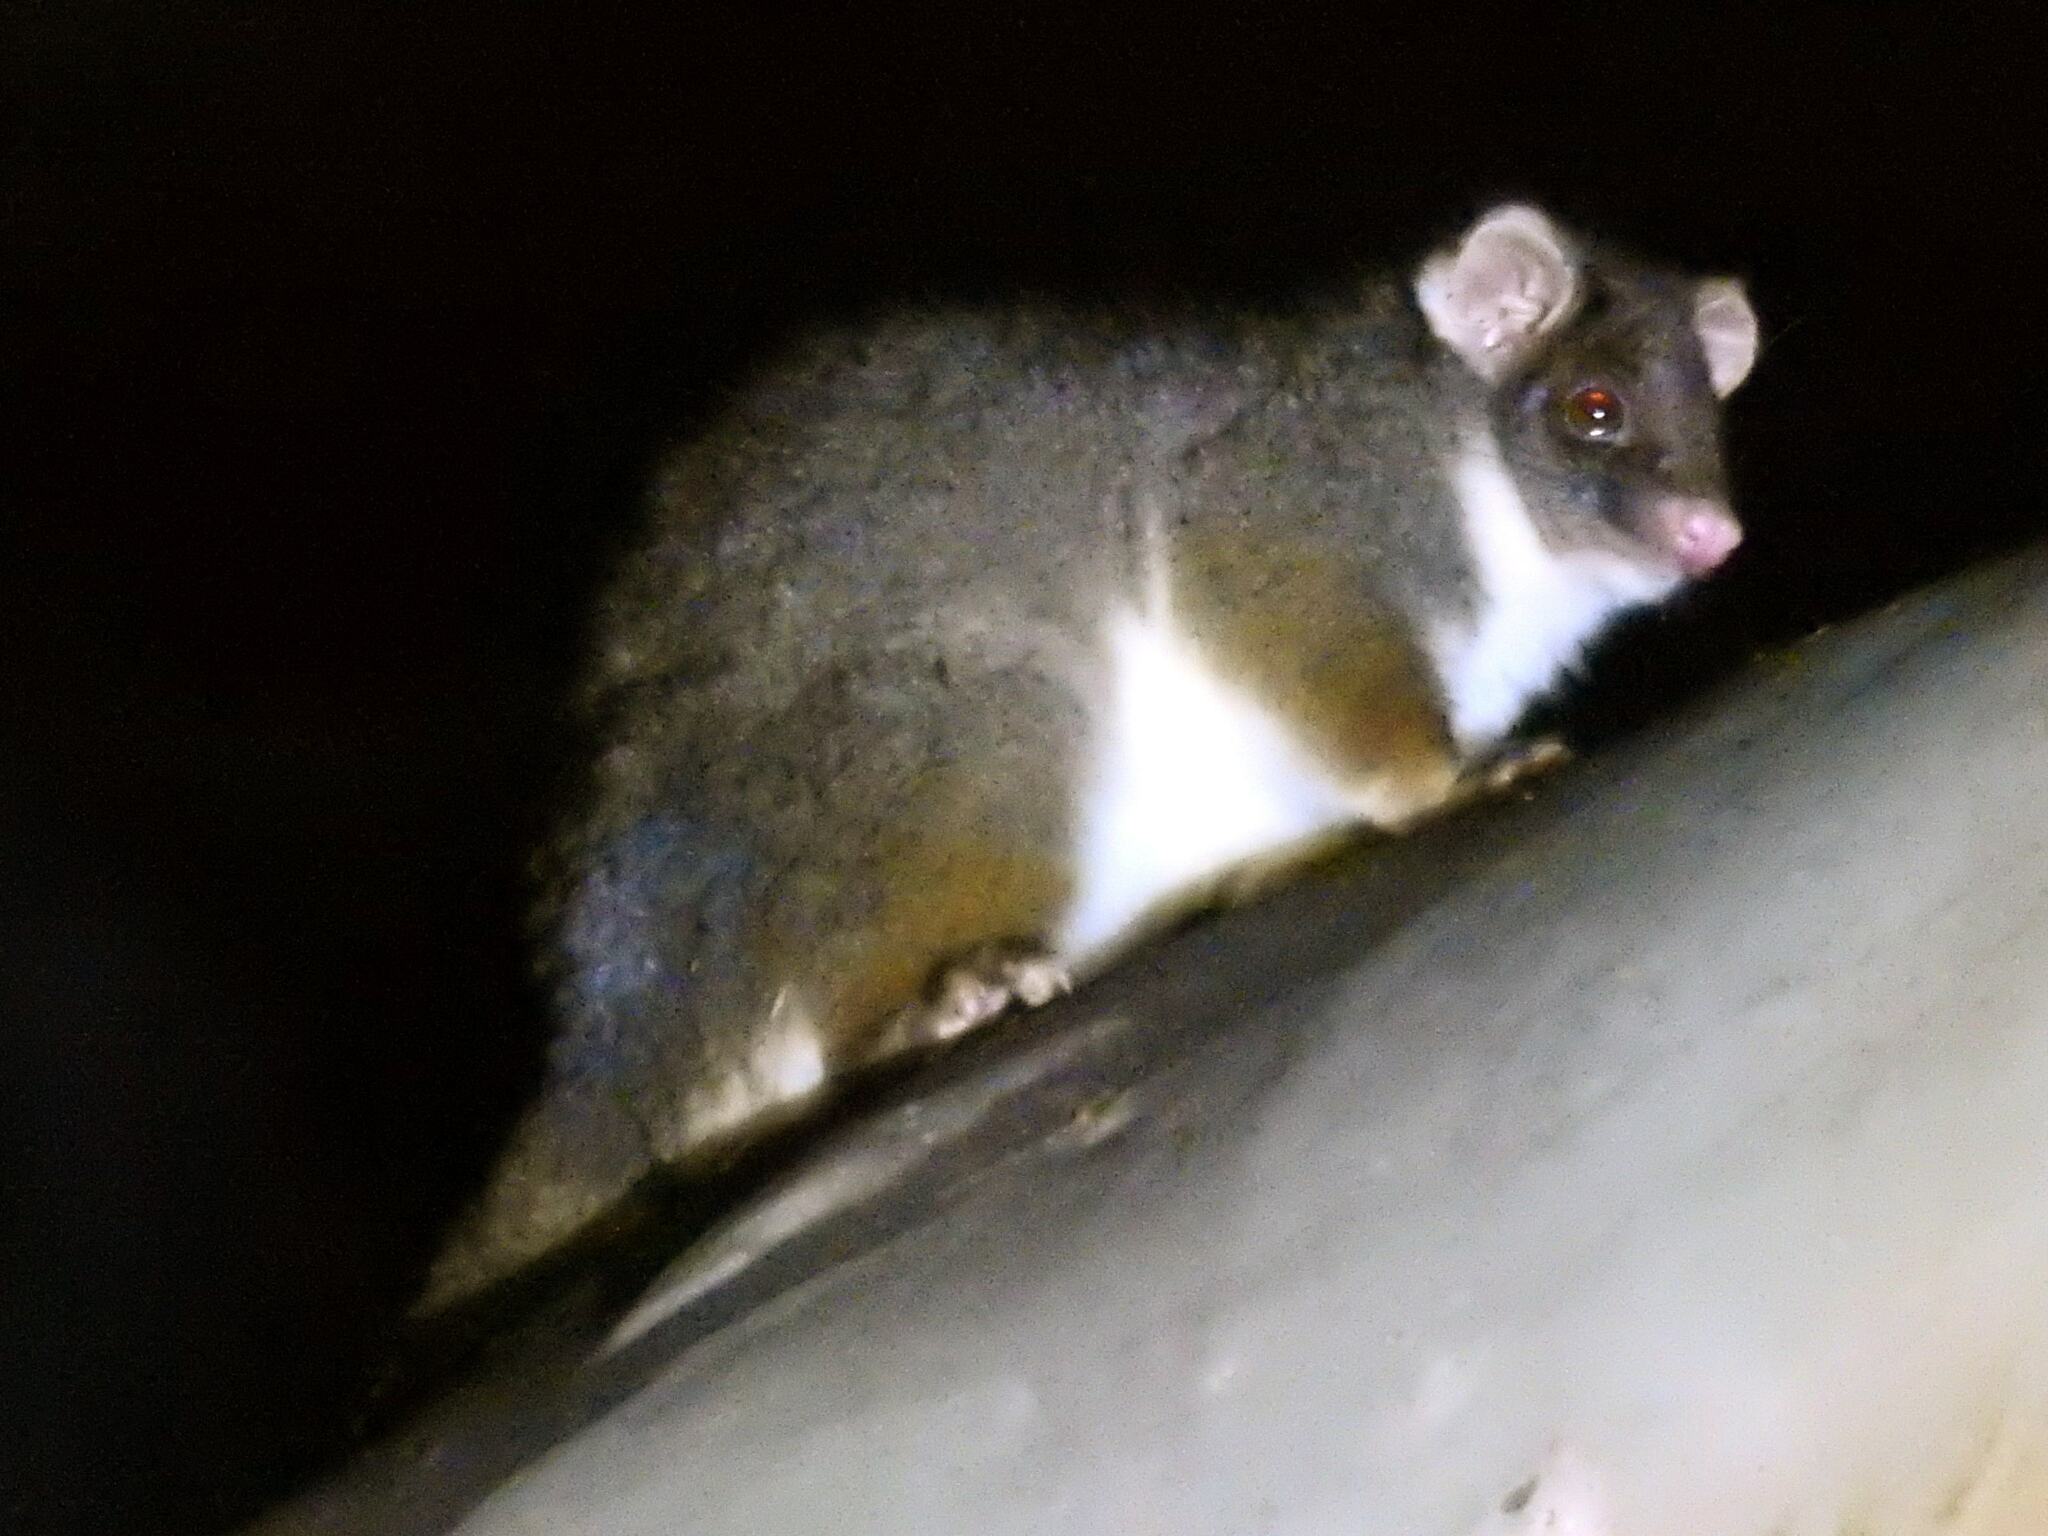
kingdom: Animalia
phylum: Chordata
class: Mammalia
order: Diprotodontia
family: Pseudocheiridae
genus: Pseudocheirus
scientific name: Pseudocheirus peregrinus
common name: Common ringtail possum
